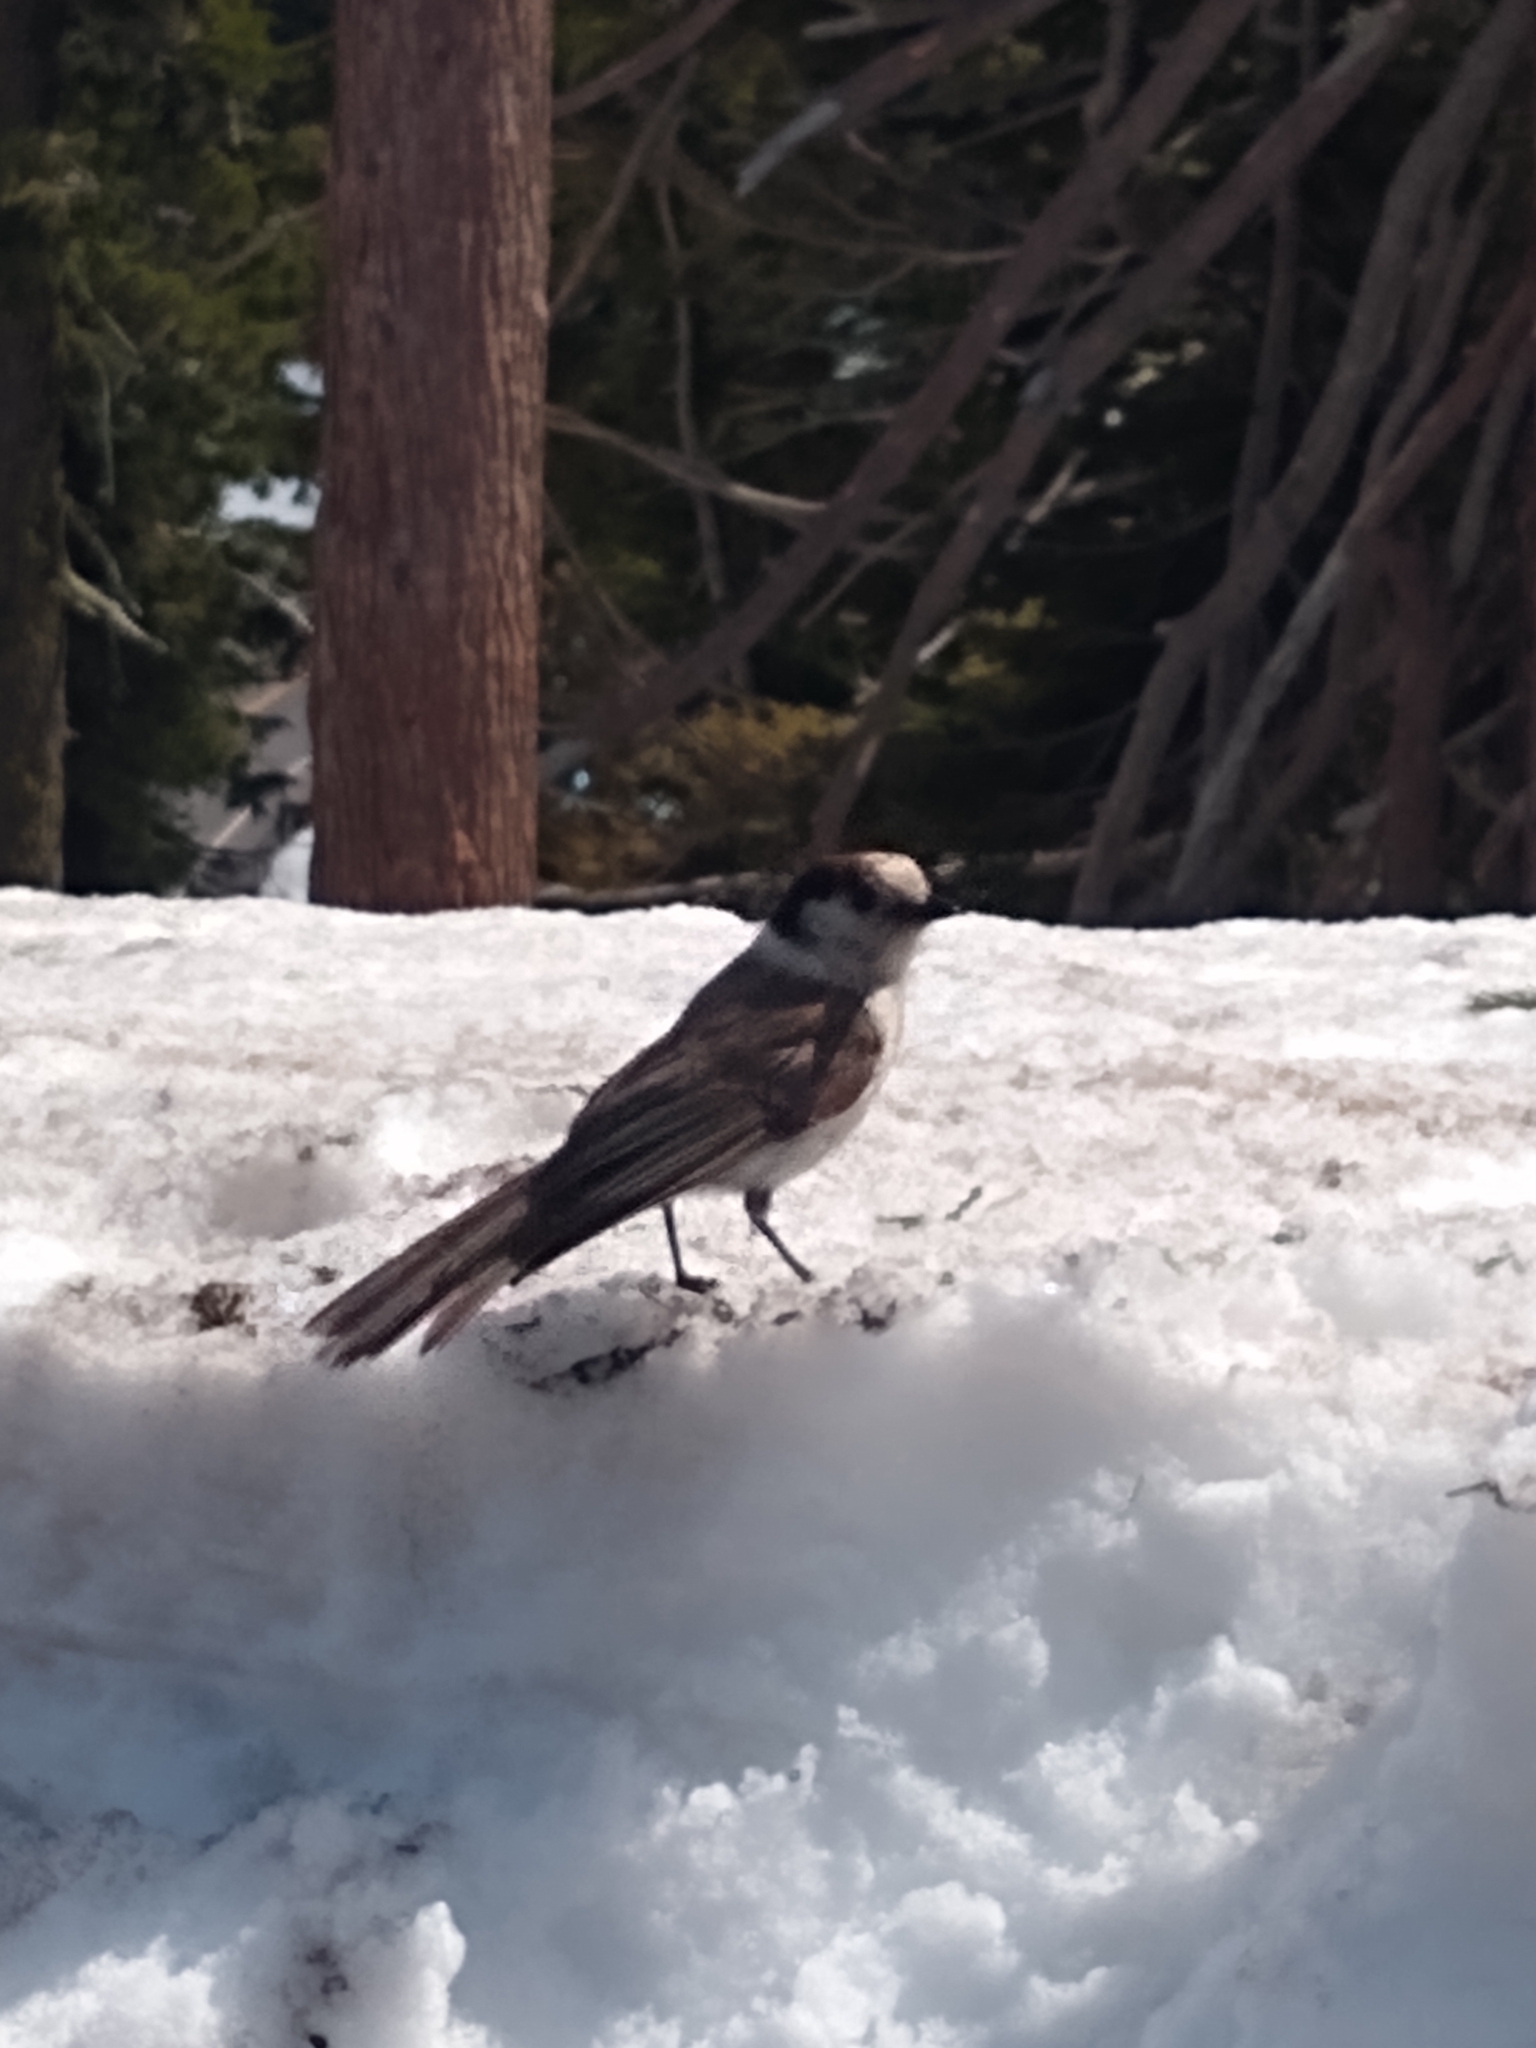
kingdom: Animalia
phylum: Chordata
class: Aves
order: Passeriformes
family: Corvidae
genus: Perisoreus
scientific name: Perisoreus canadensis
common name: Gray jay
